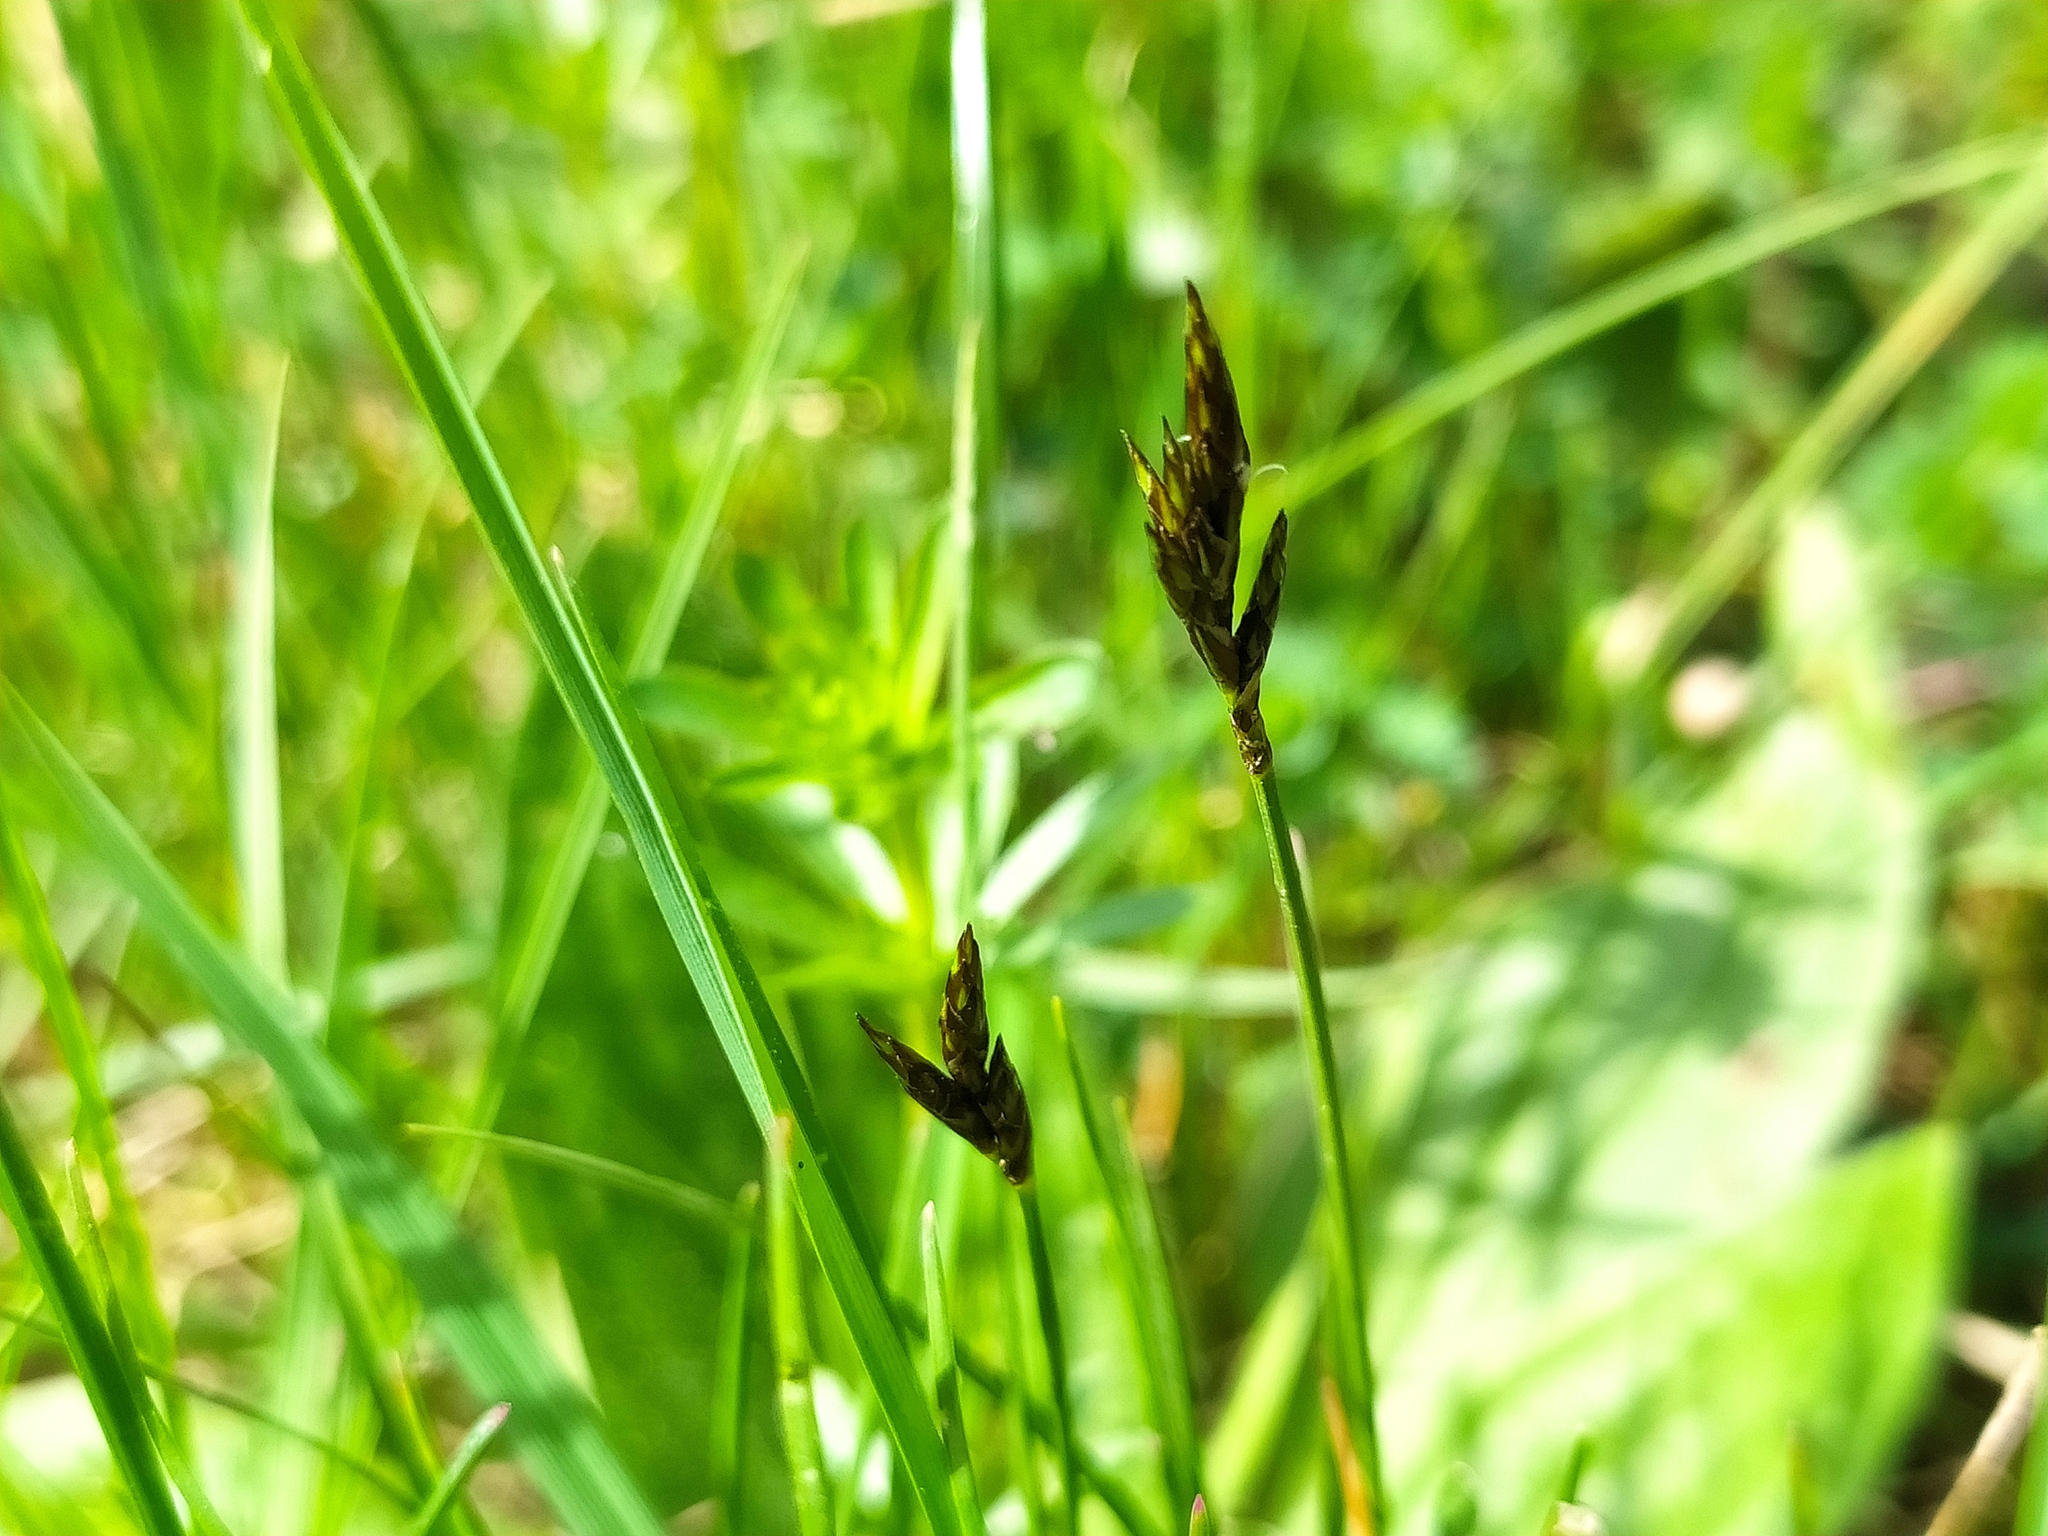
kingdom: Plantae
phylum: Tracheophyta
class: Liliopsida
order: Poales
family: Cyperaceae
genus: Carex
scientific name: Carex praecox
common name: Early sedge
